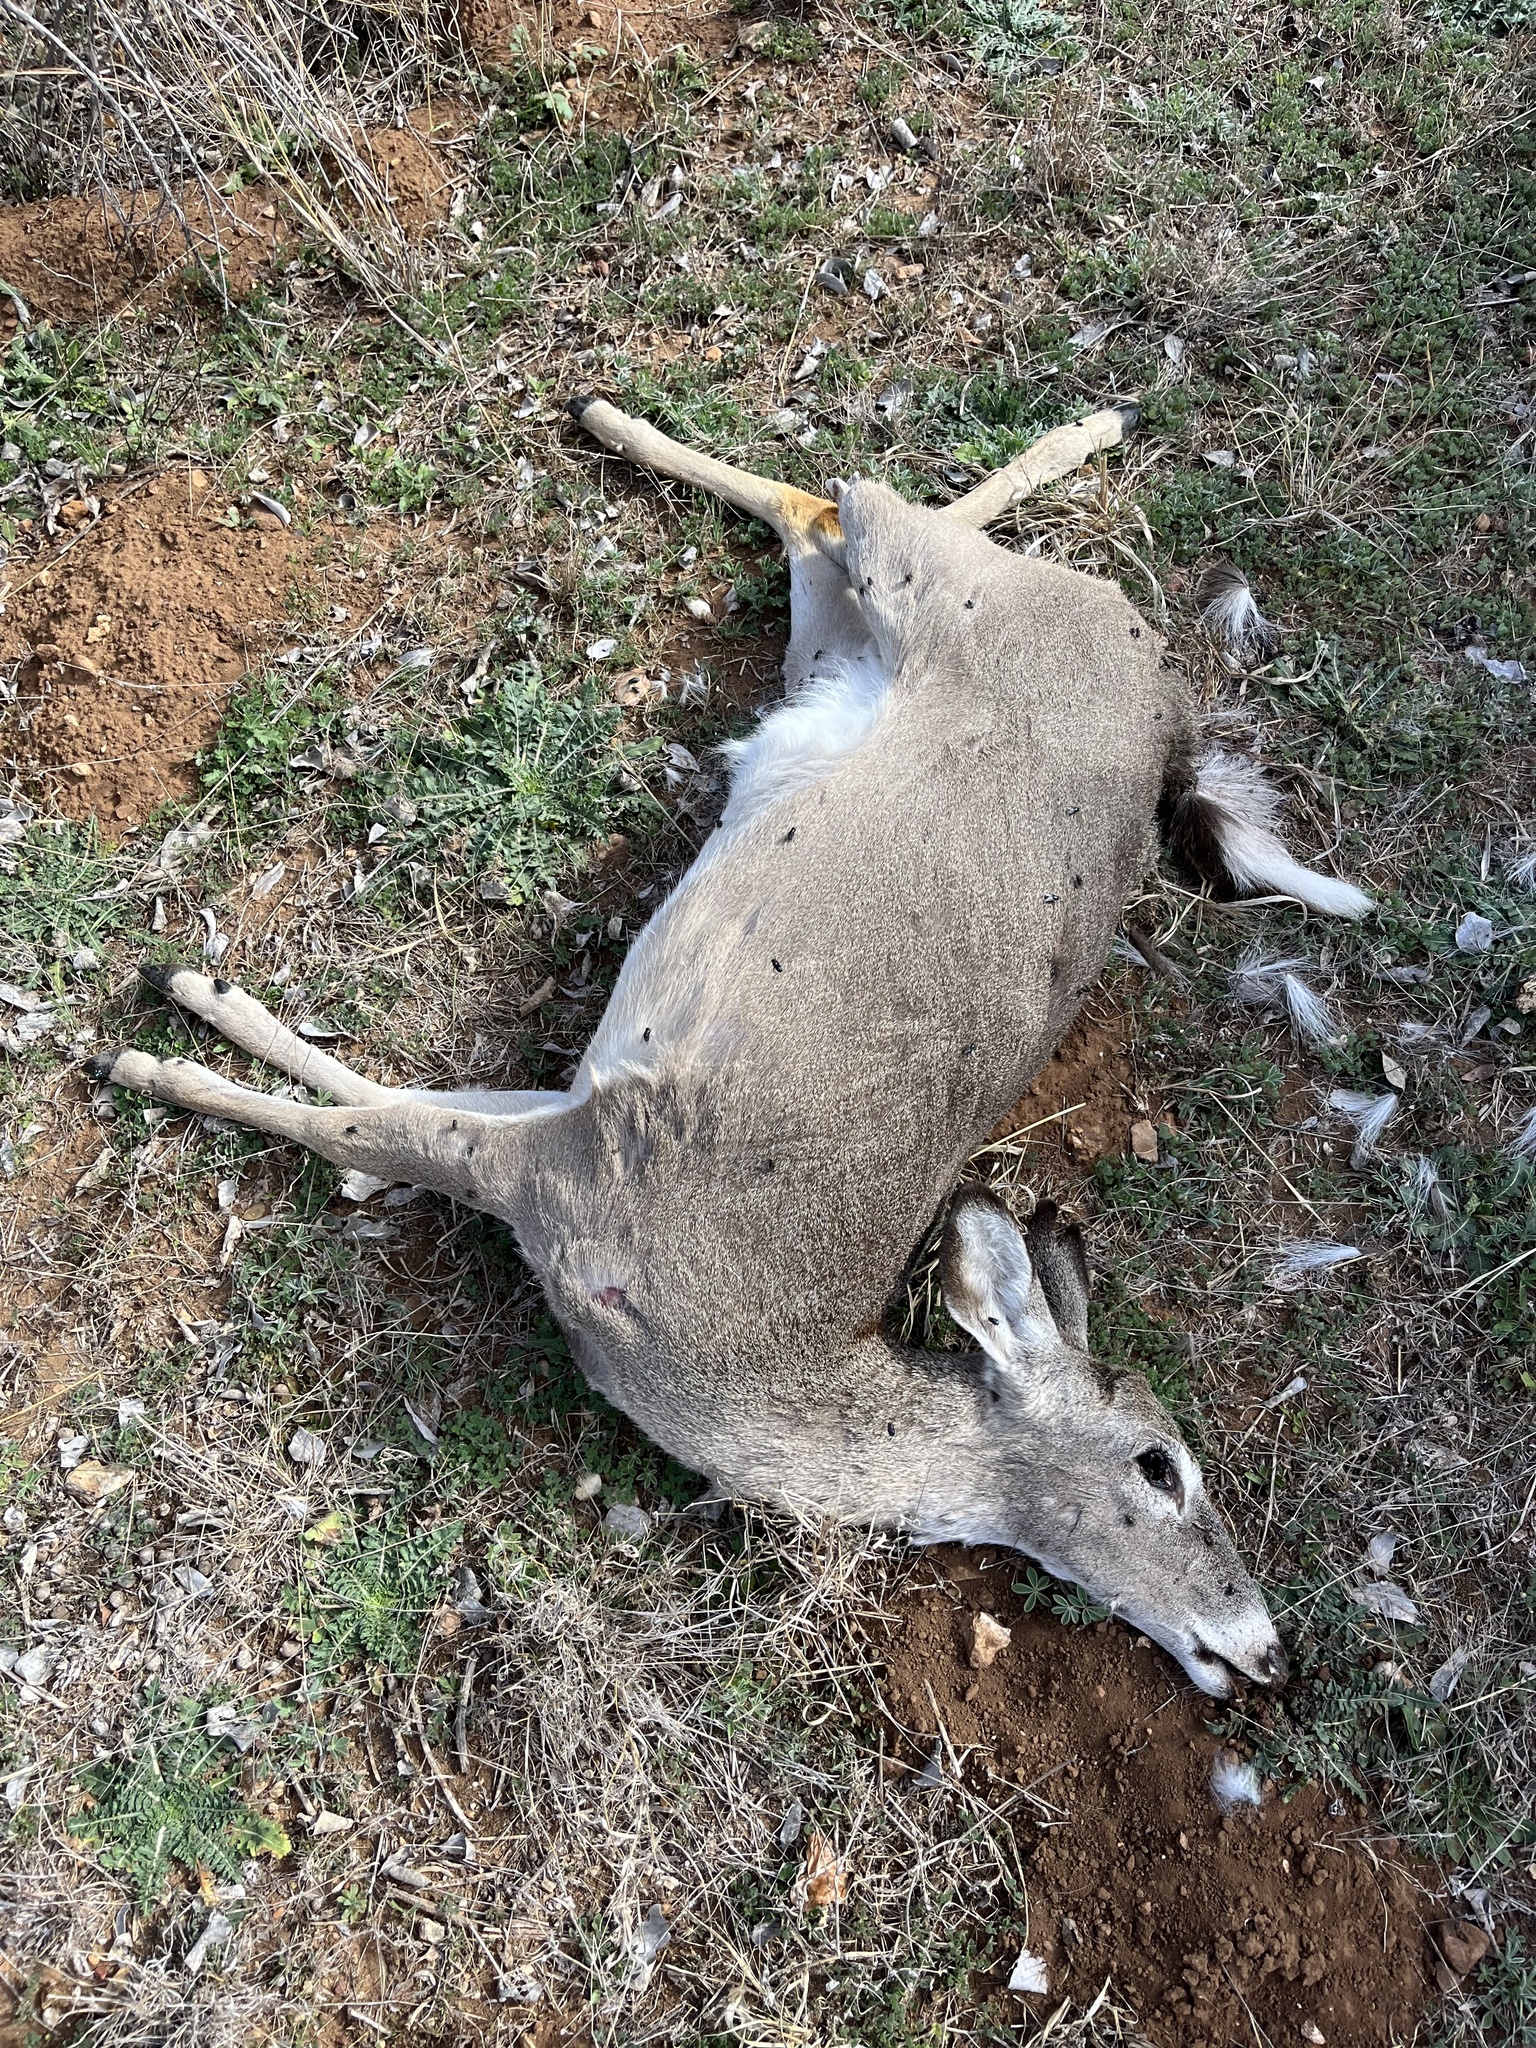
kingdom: Animalia
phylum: Chordata
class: Mammalia
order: Artiodactyla
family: Cervidae
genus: Odocoileus
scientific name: Odocoileus virginianus
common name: White-tailed deer
